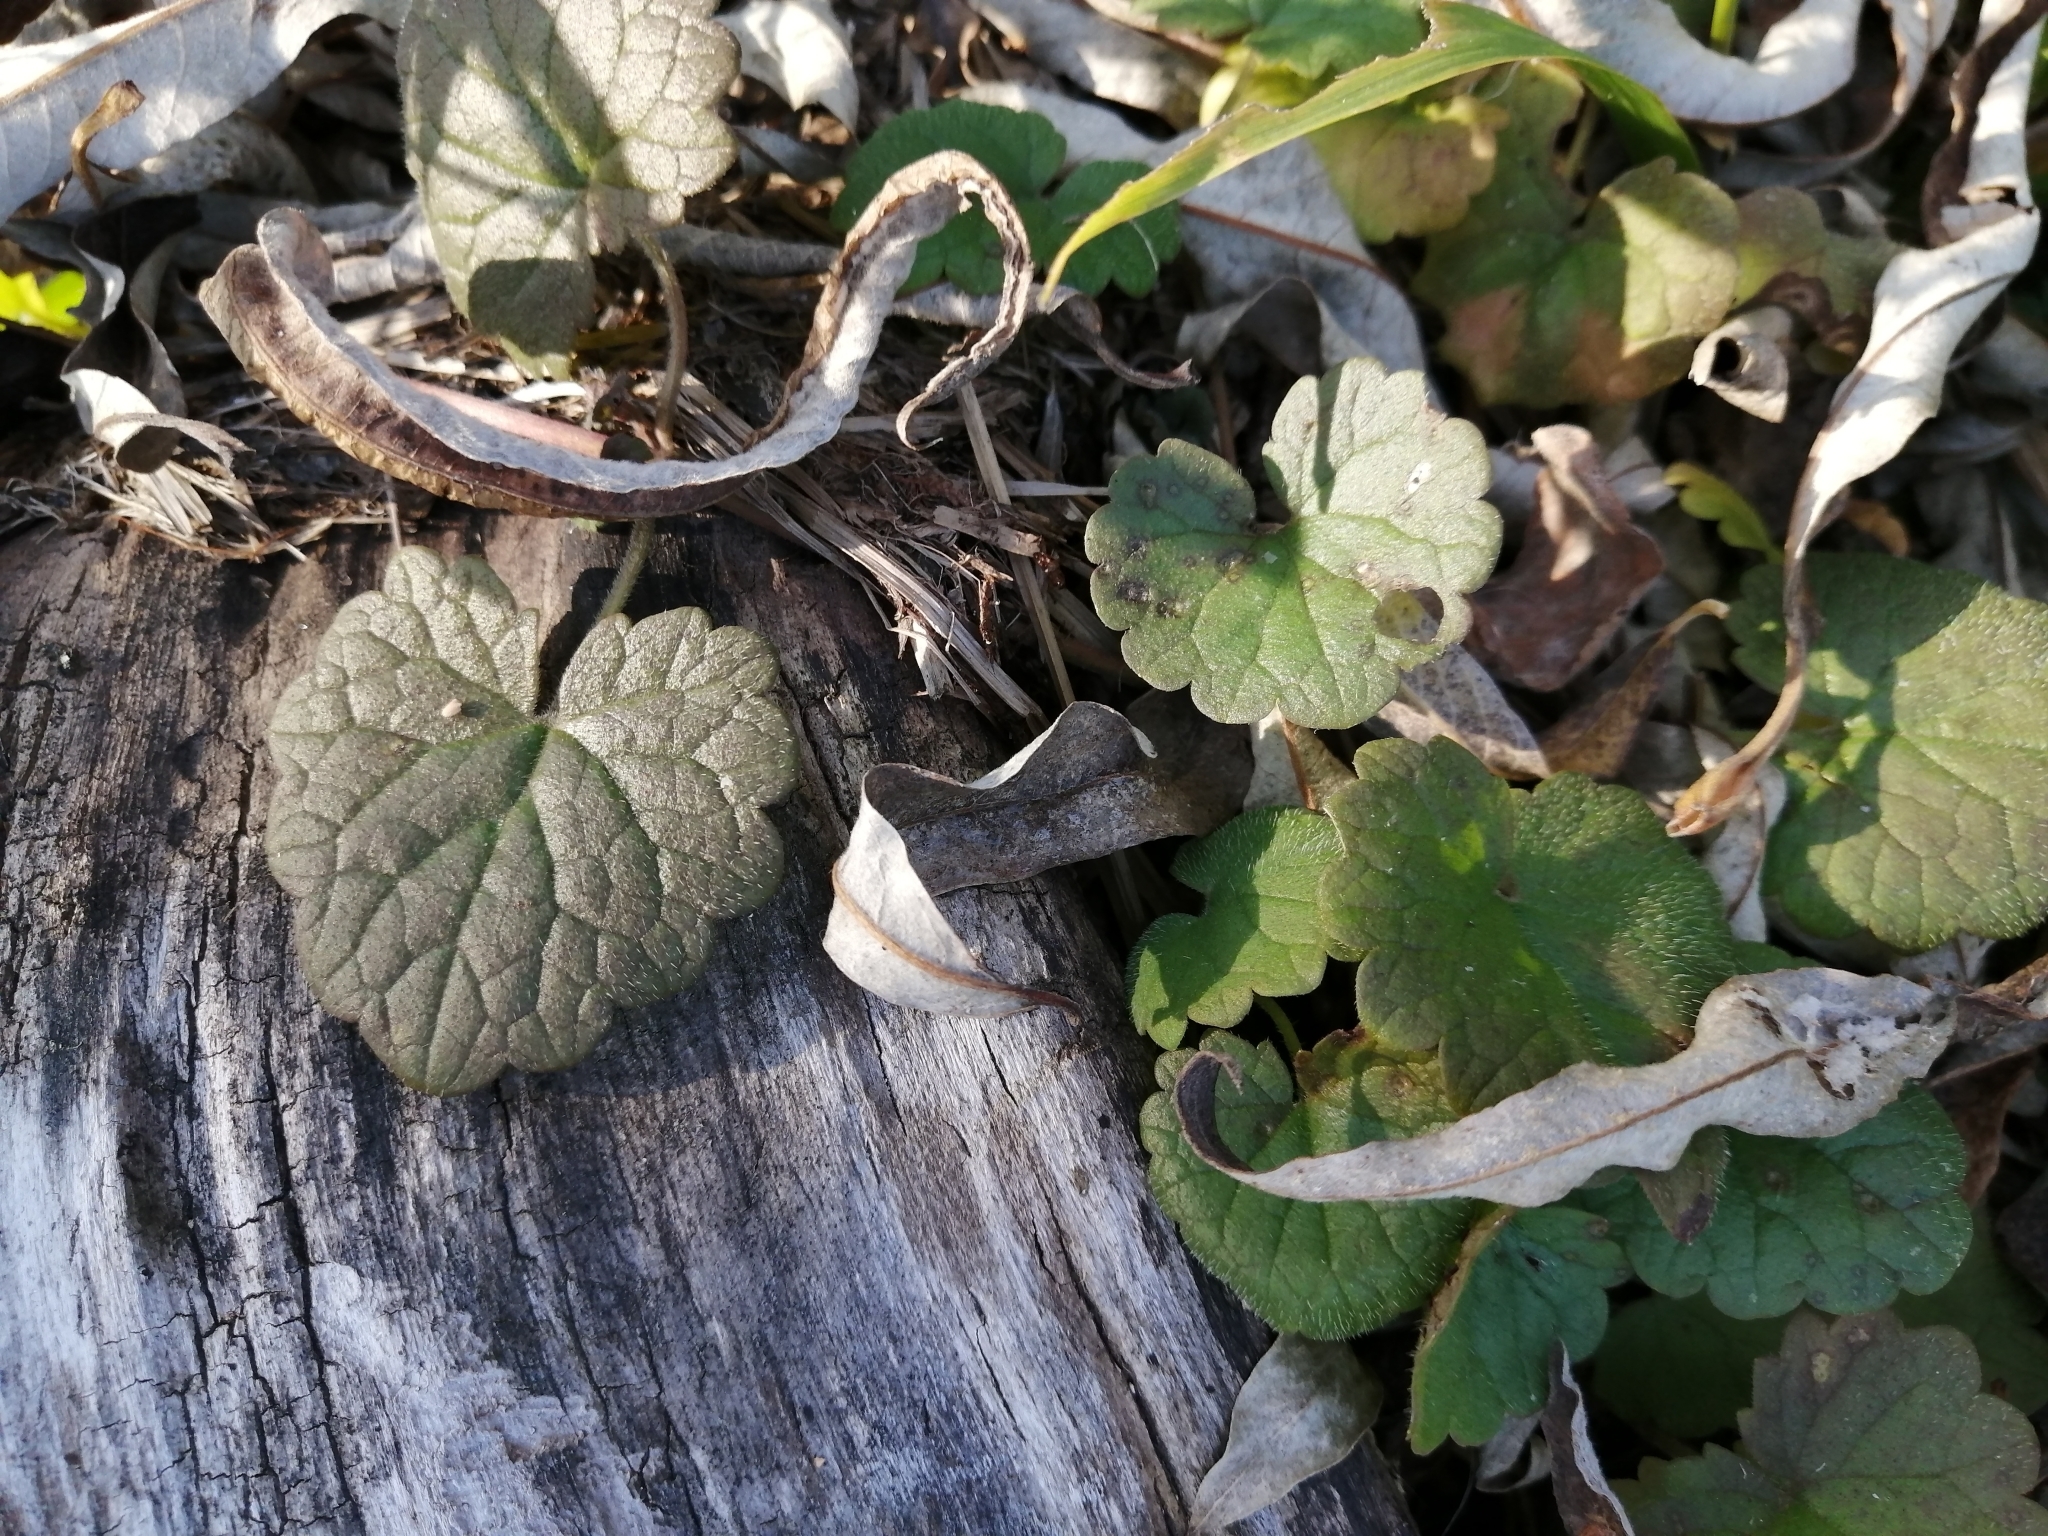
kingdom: Plantae
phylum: Tracheophyta
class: Magnoliopsida
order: Lamiales
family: Lamiaceae
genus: Glechoma
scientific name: Glechoma hederacea
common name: Ground ivy
